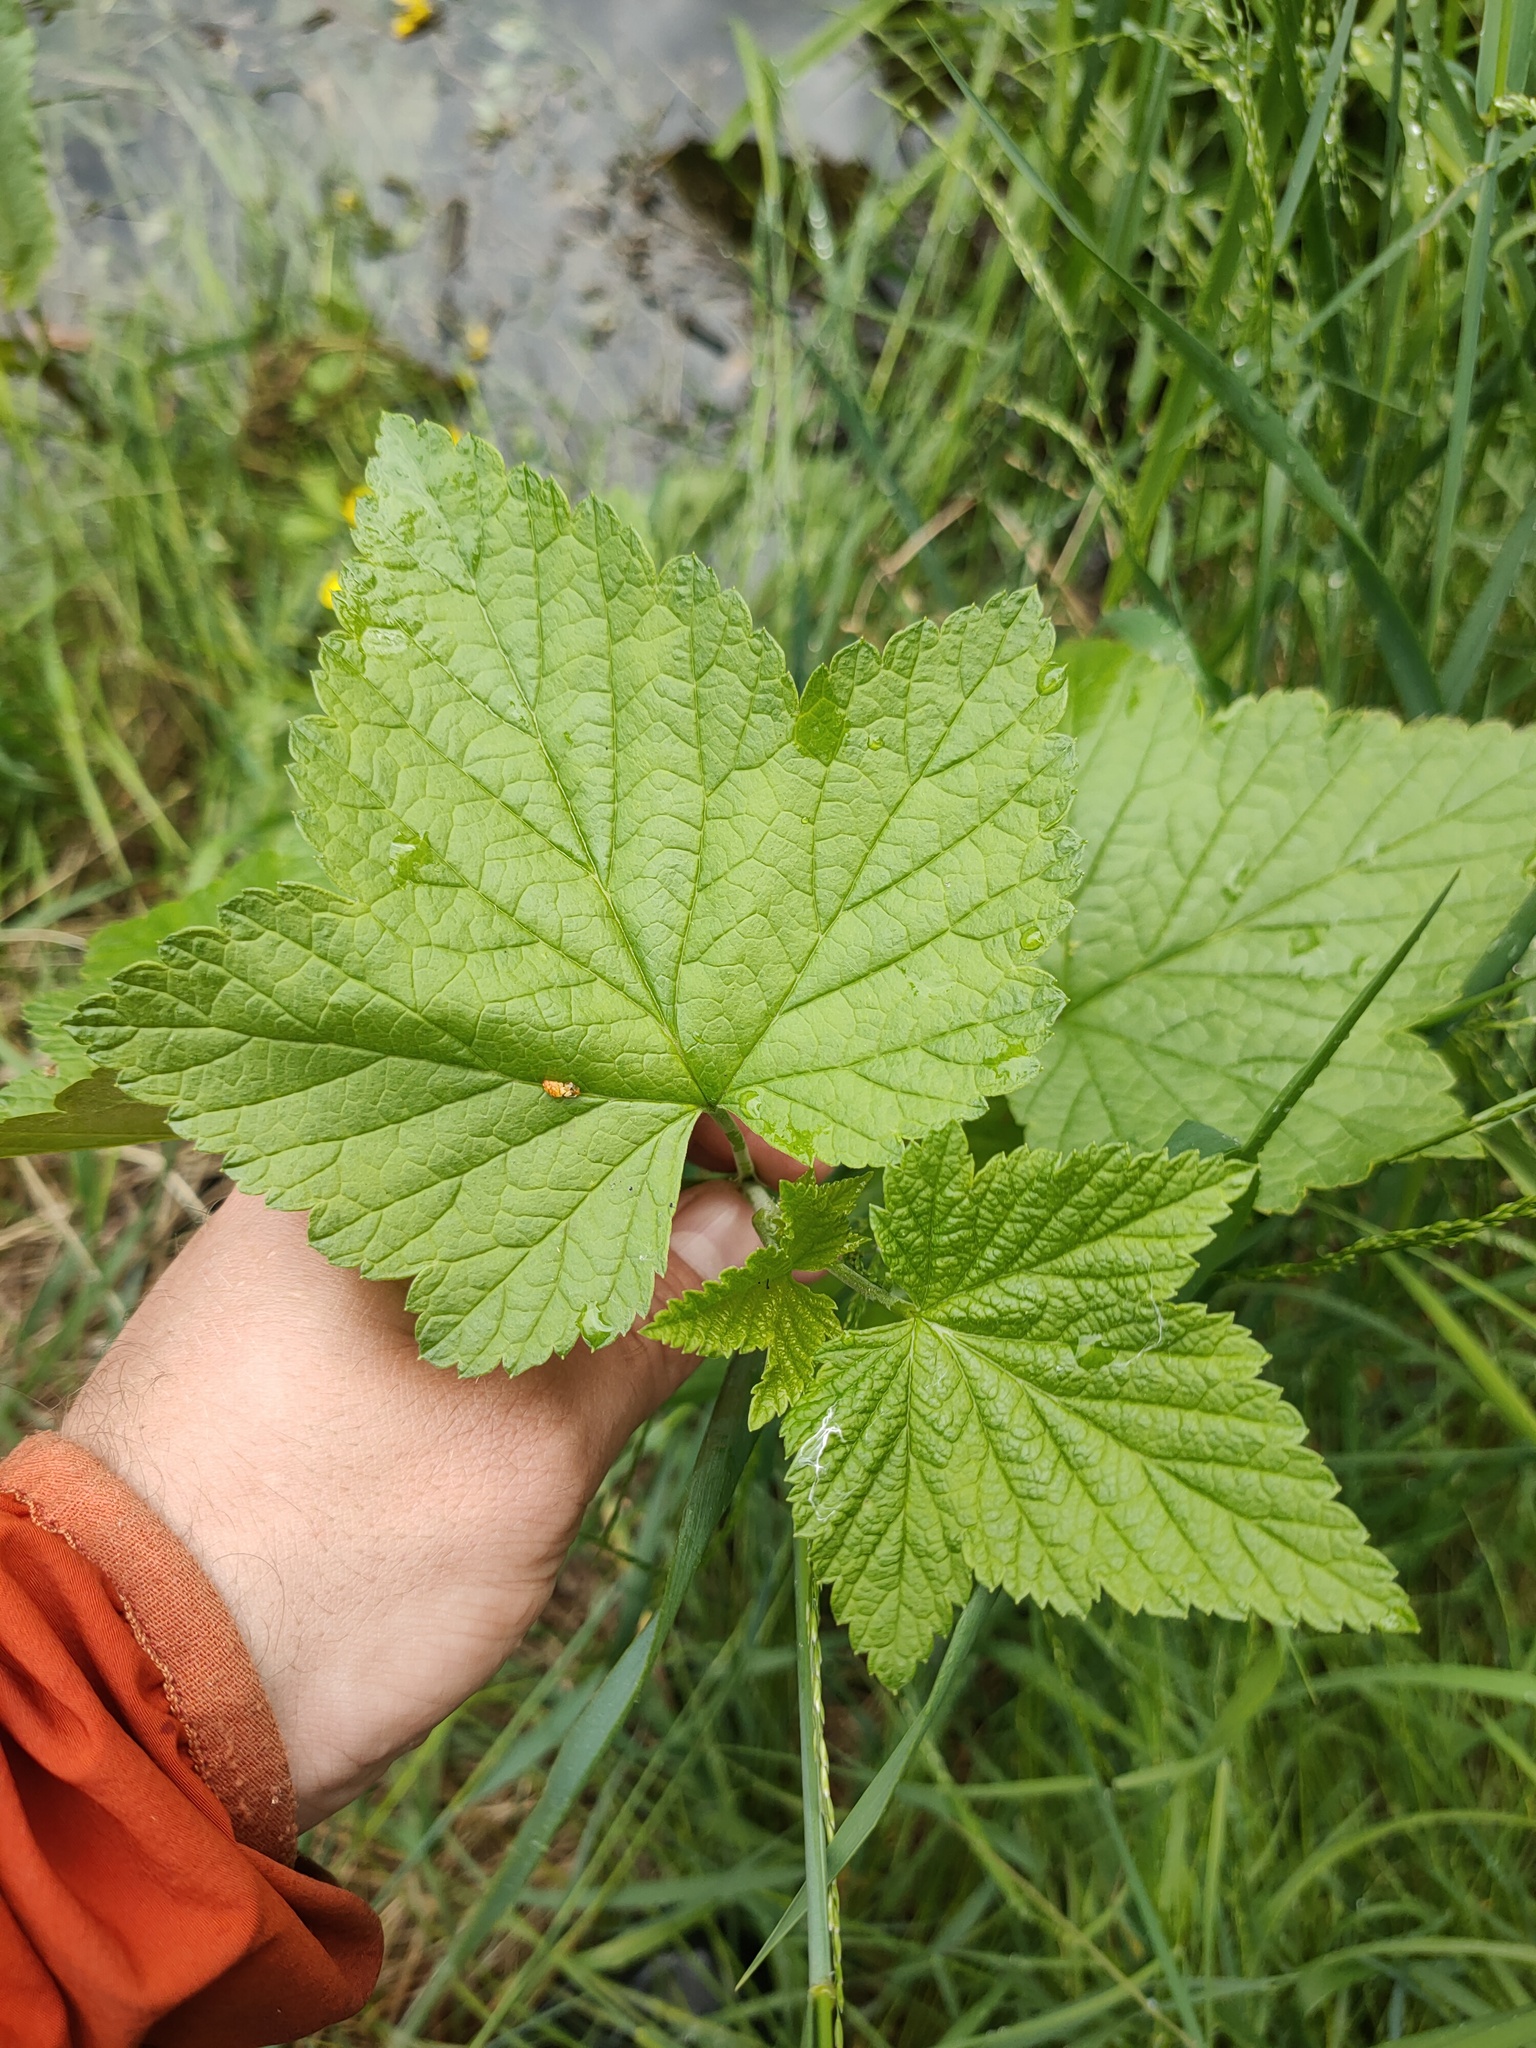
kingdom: Plantae
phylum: Tracheophyta
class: Magnoliopsida
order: Saxifragales
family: Grossulariaceae
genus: Ribes
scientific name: Ribes nigrum
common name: Black currant
